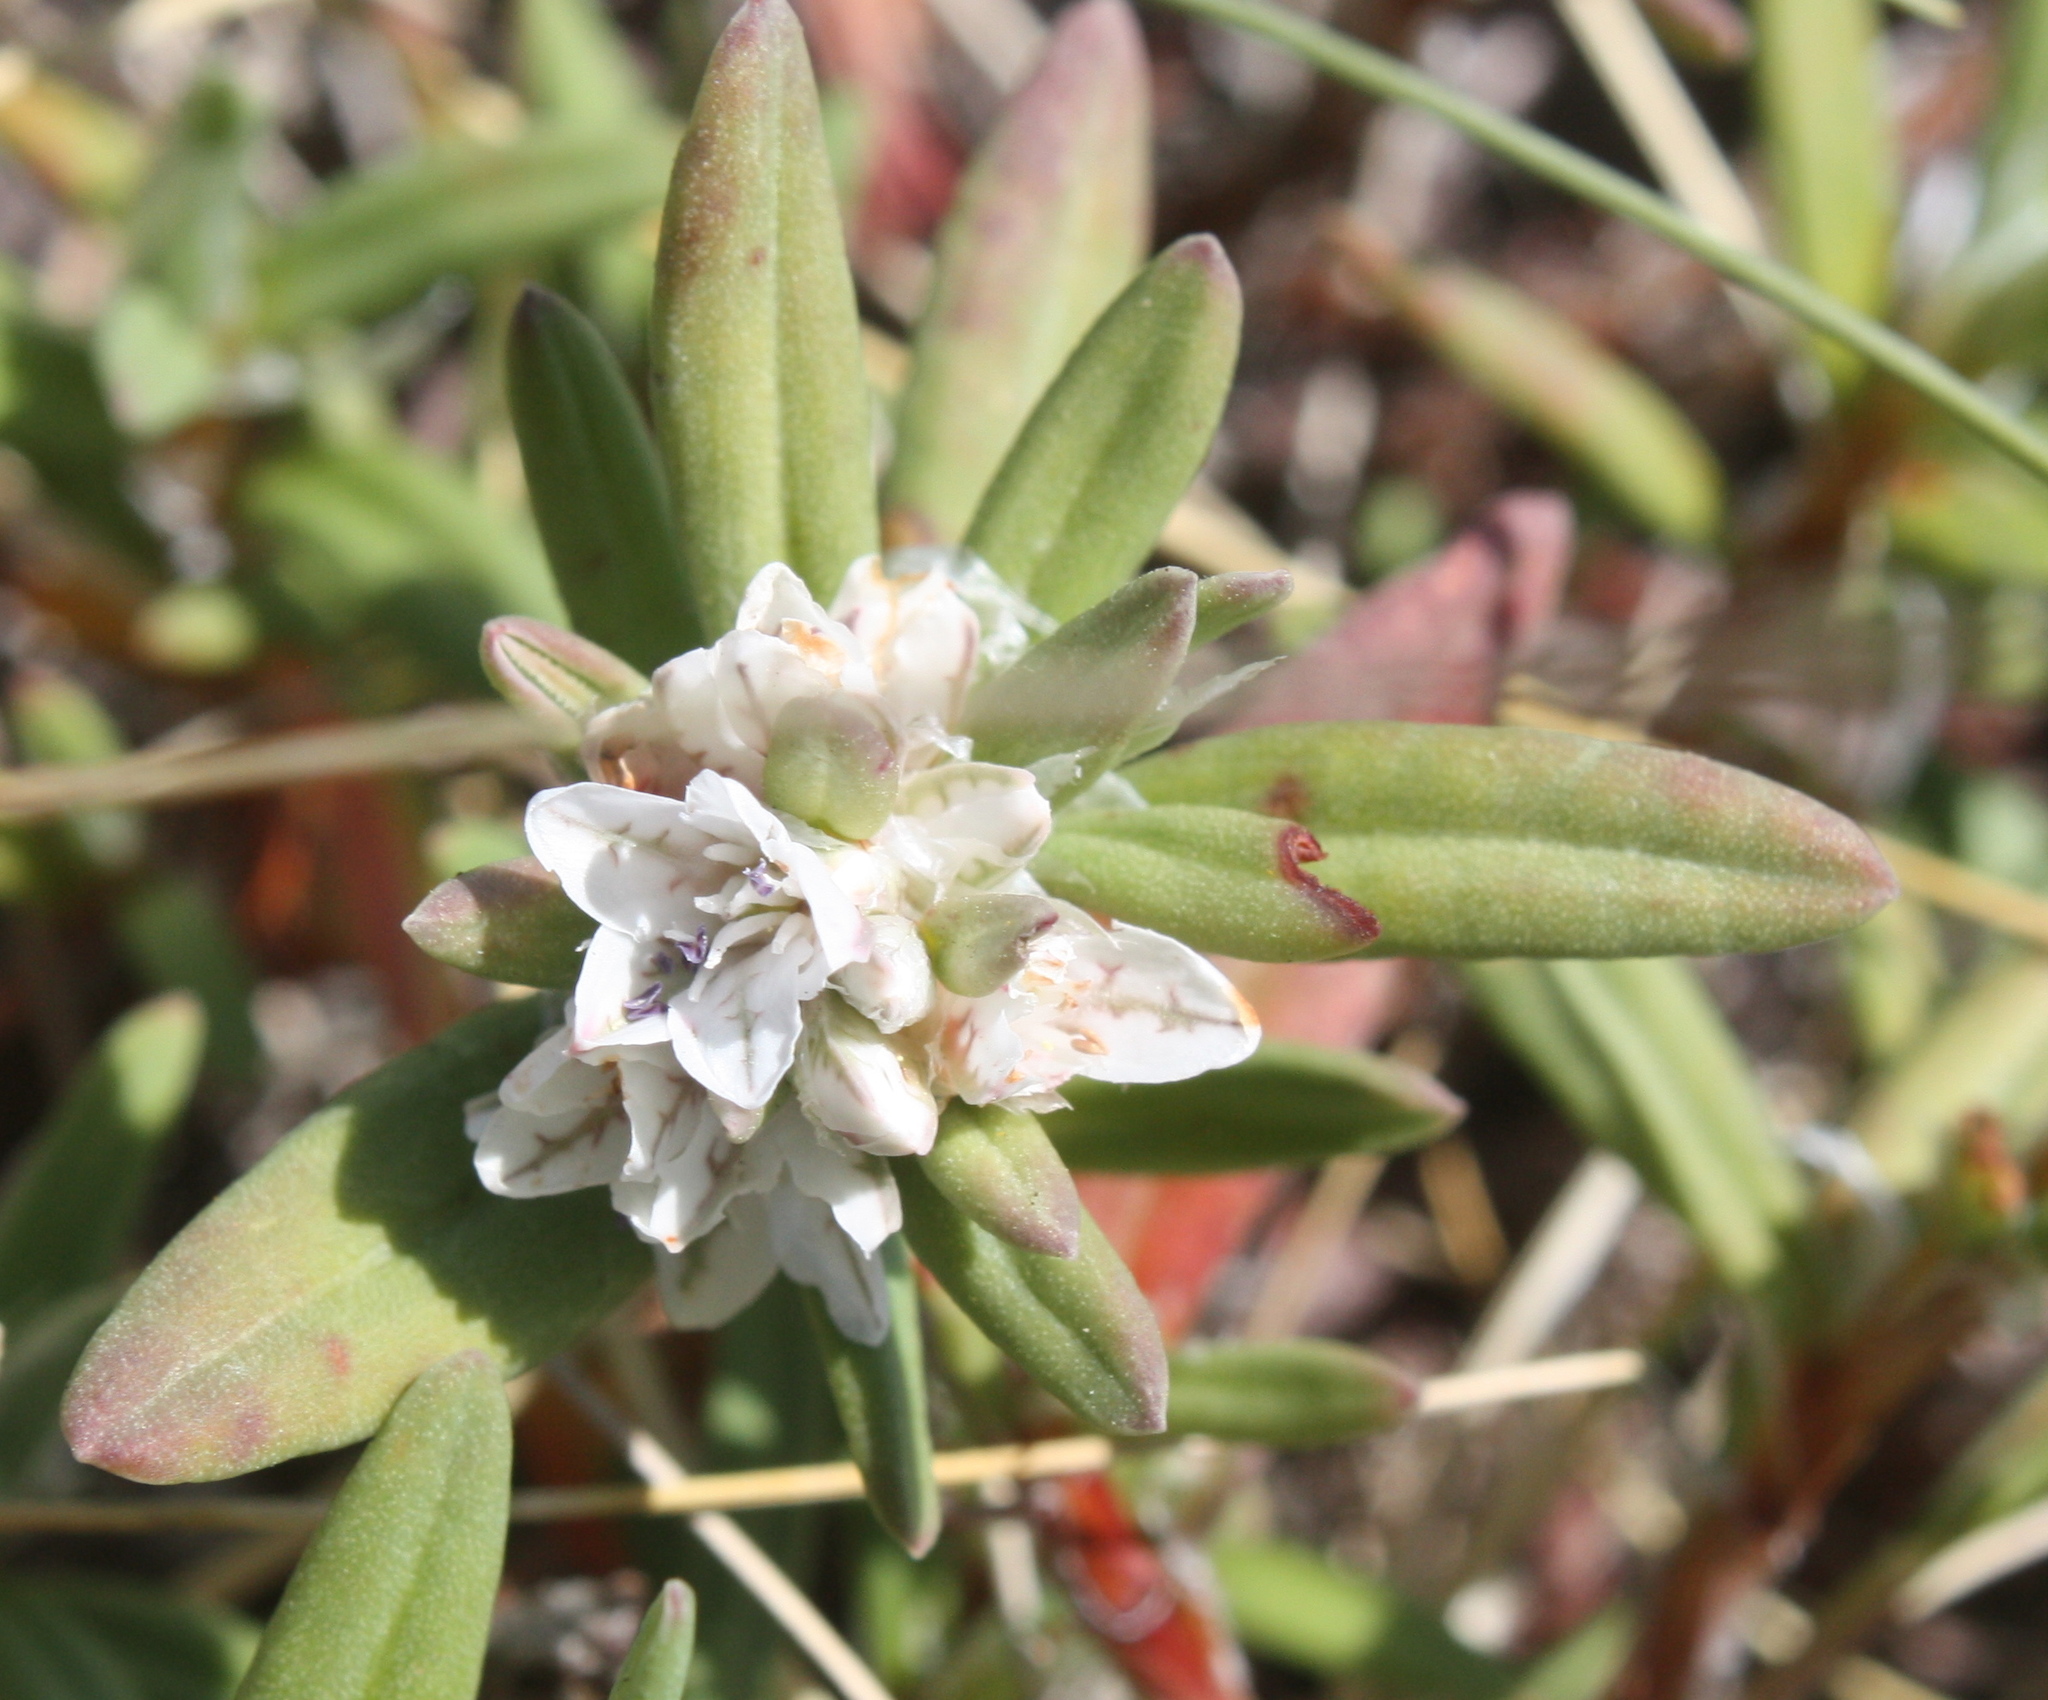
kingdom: Plantae
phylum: Tracheophyta
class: Magnoliopsida
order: Caryophyllales
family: Polygonaceae
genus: Polygonum
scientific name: Polygonum paronychia
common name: Dune knotweed
